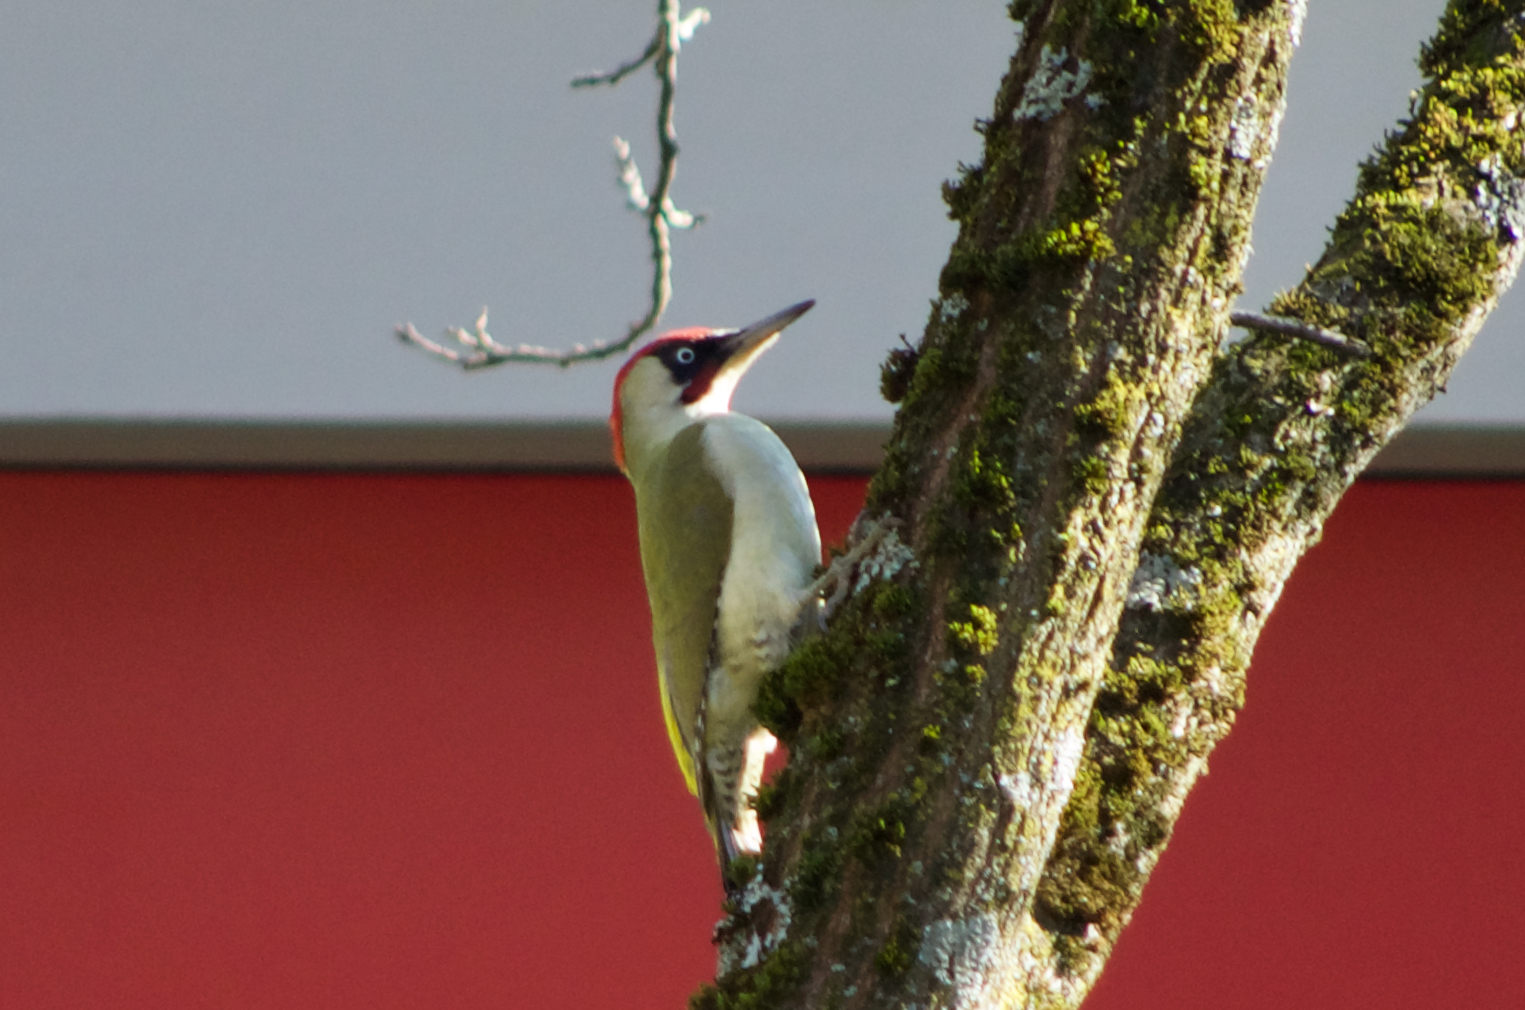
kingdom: Animalia
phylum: Chordata
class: Aves
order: Piciformes
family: Picidae
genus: Picus
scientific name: Picus viridis
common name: European green woodpecker
